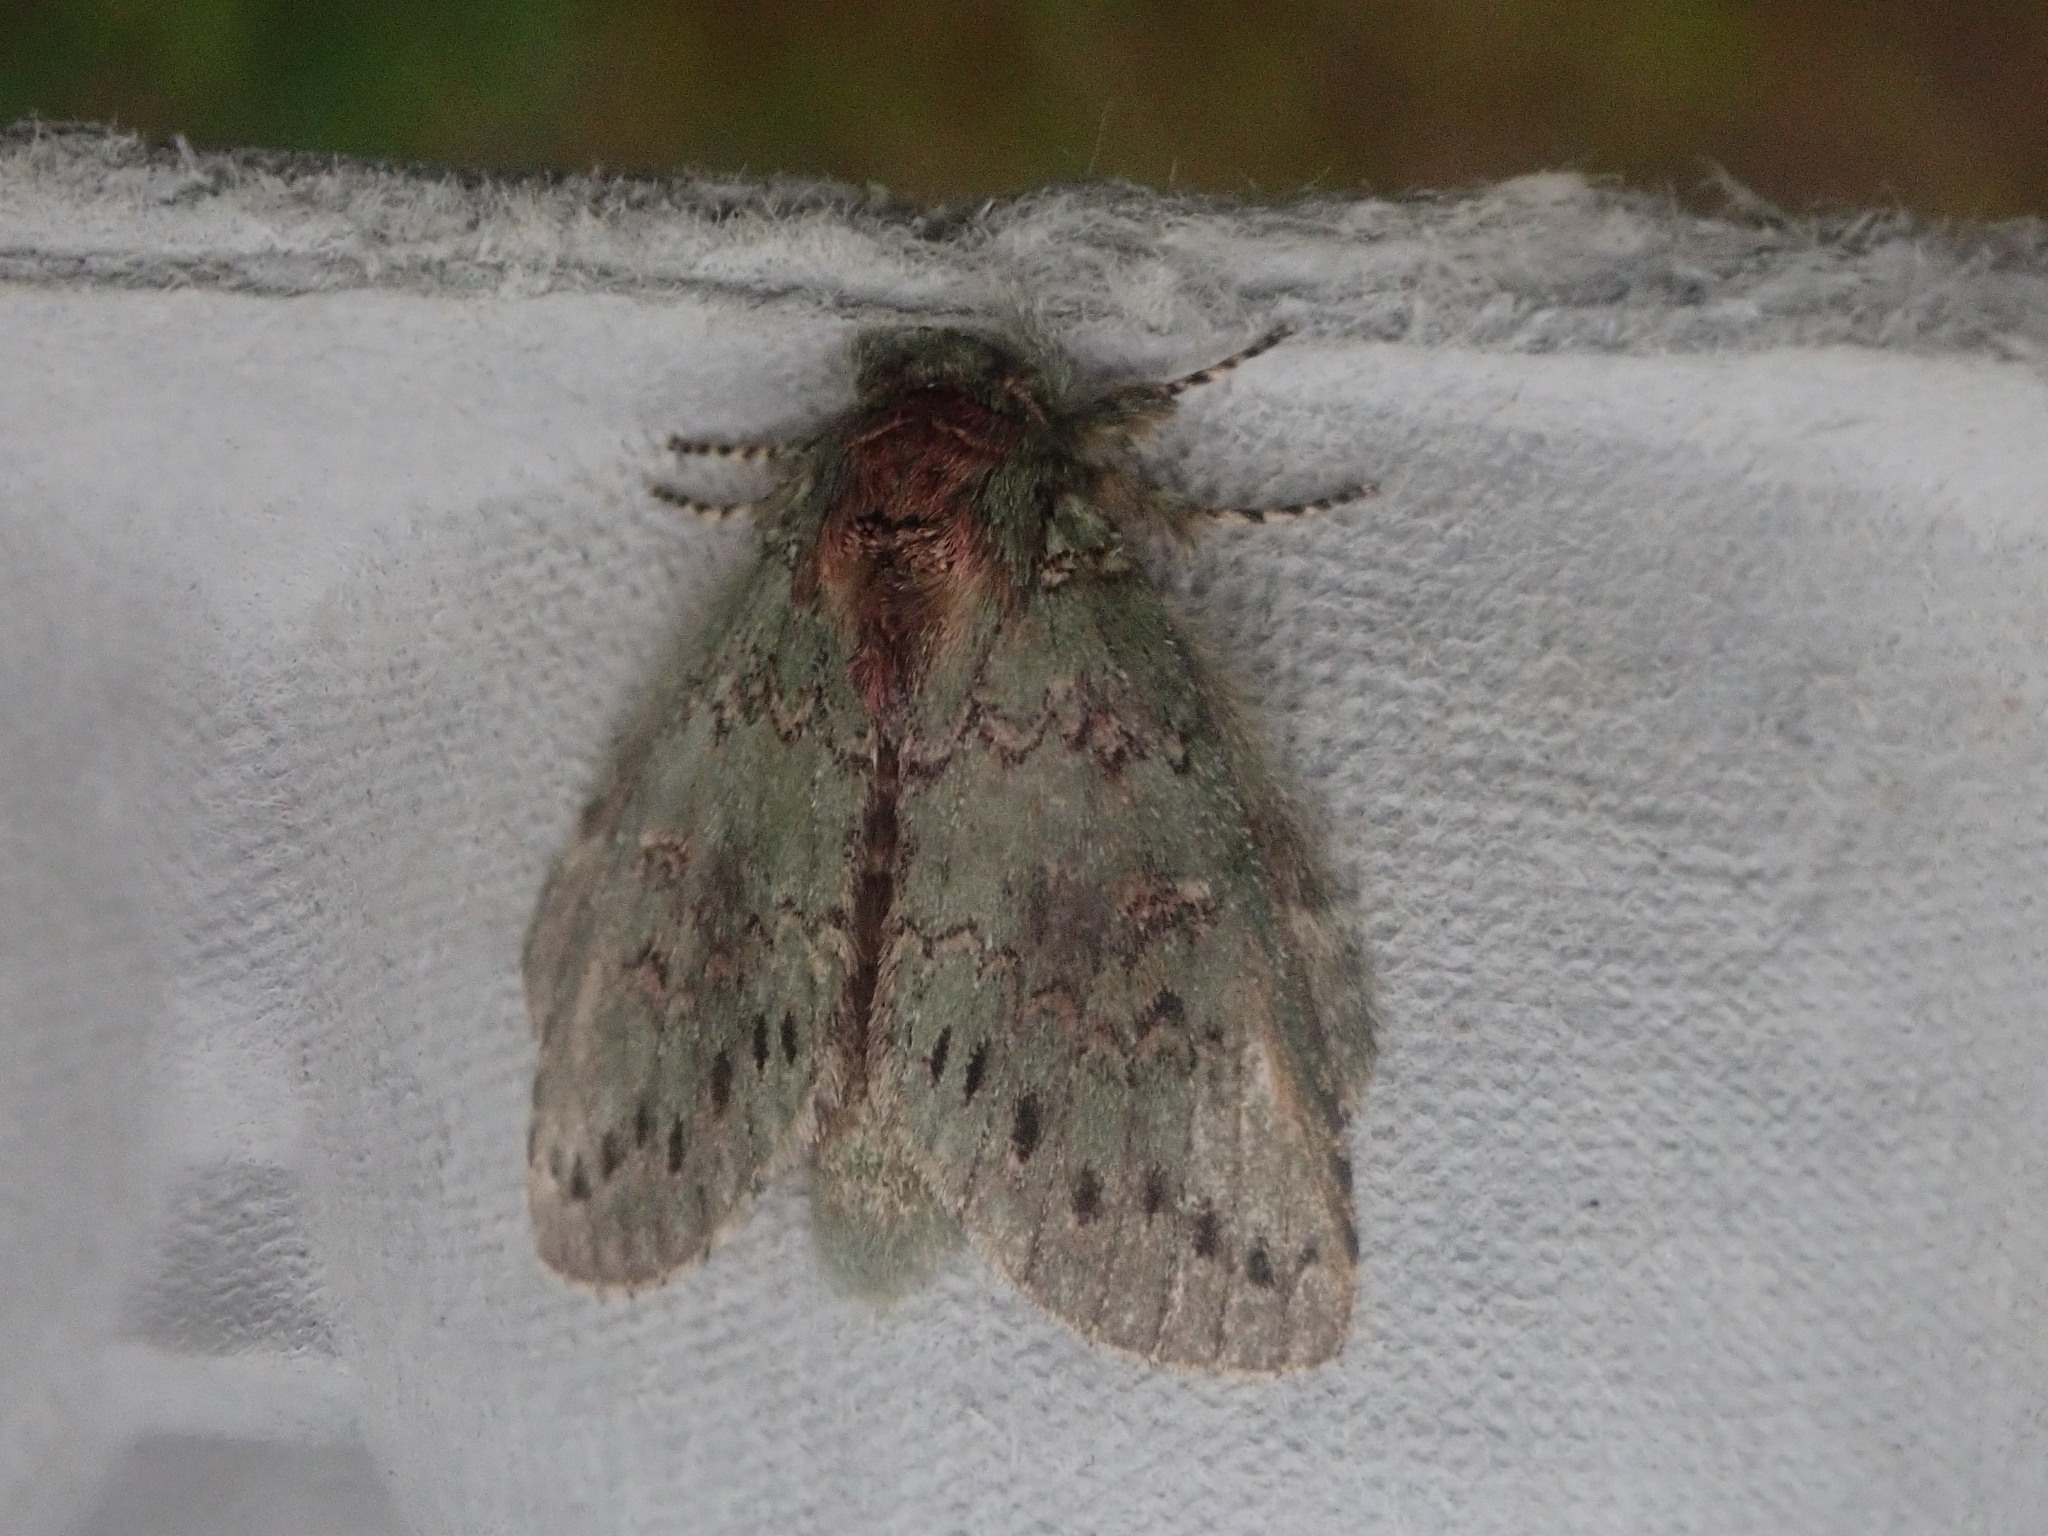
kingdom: Animalia
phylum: Arthropoda
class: Insecta
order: Lepidoptera
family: Notodontidae
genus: Disphragis
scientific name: Disphragis Cecrita biundata
